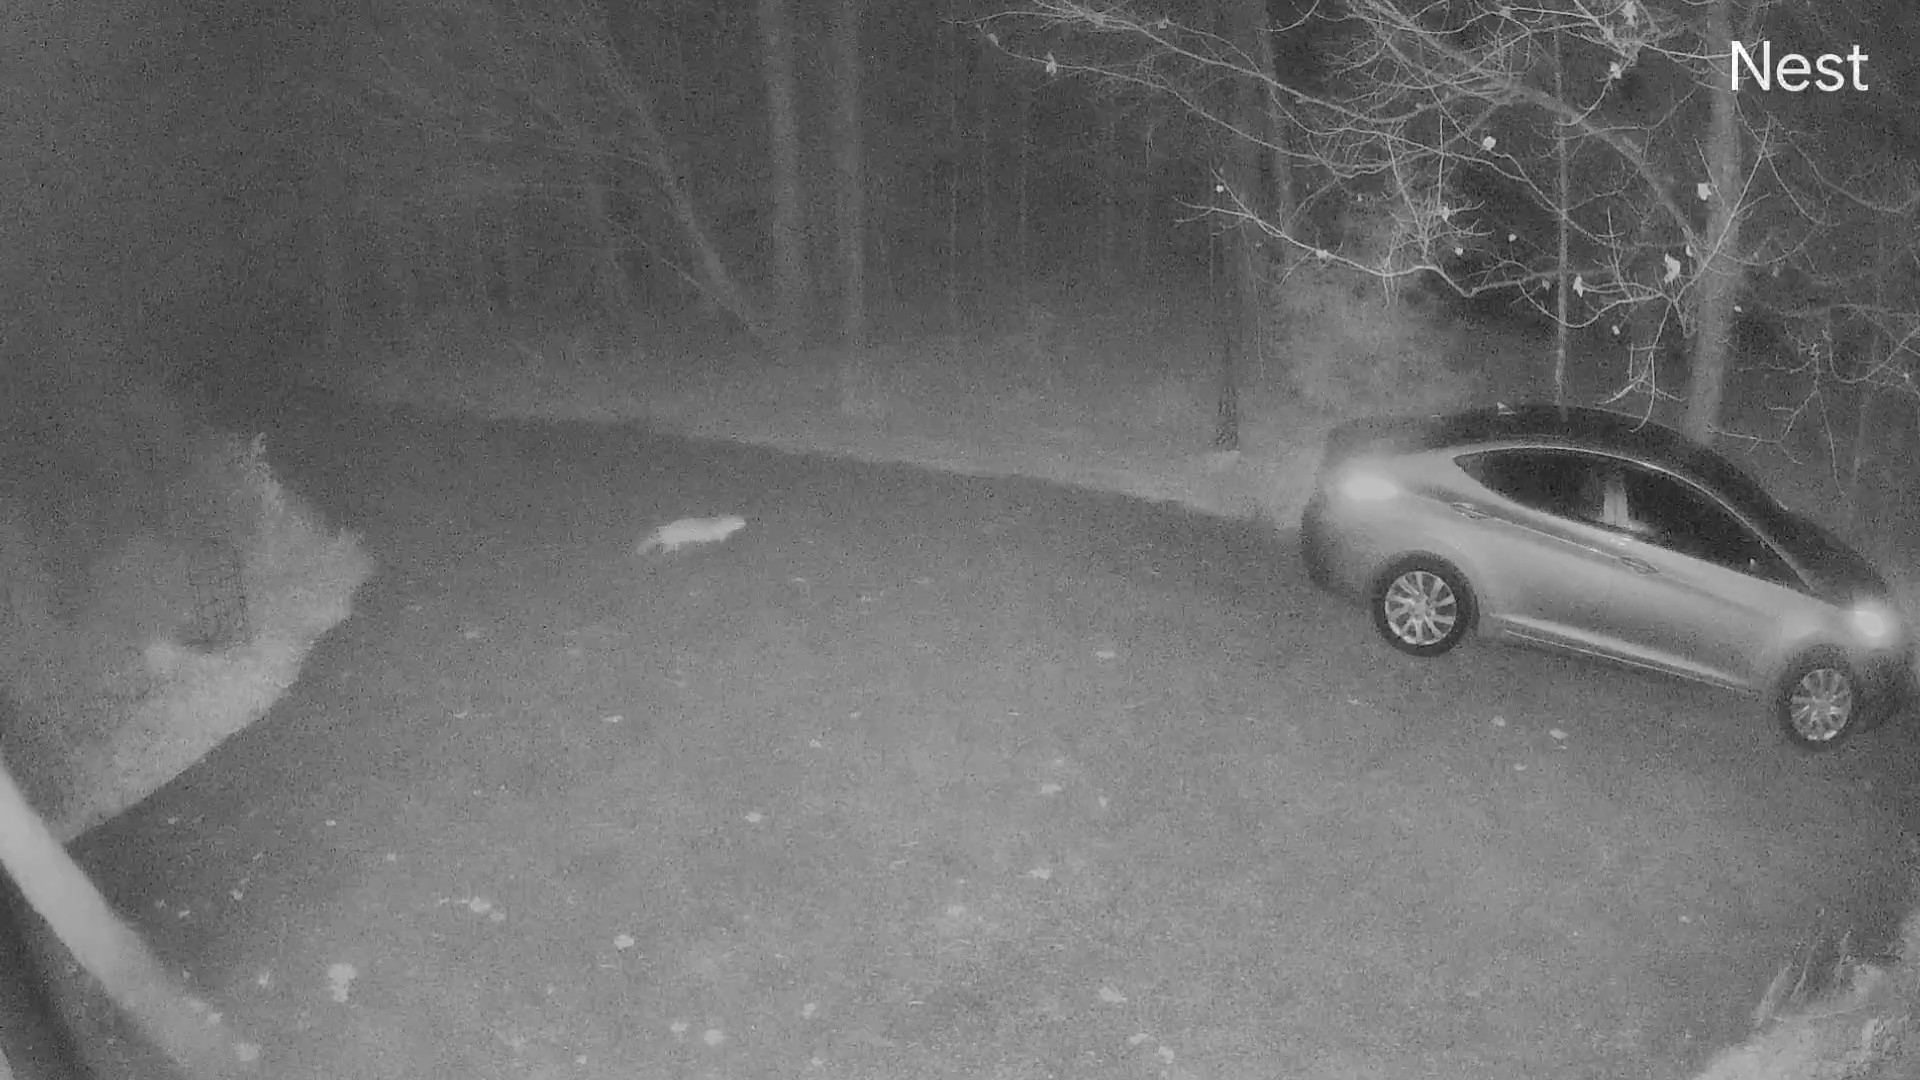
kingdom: Animalia
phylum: Chordata
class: Mammalia
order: Carnivora
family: Canidae
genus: Vulpes
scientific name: Vulpes vulpes
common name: Red fox
